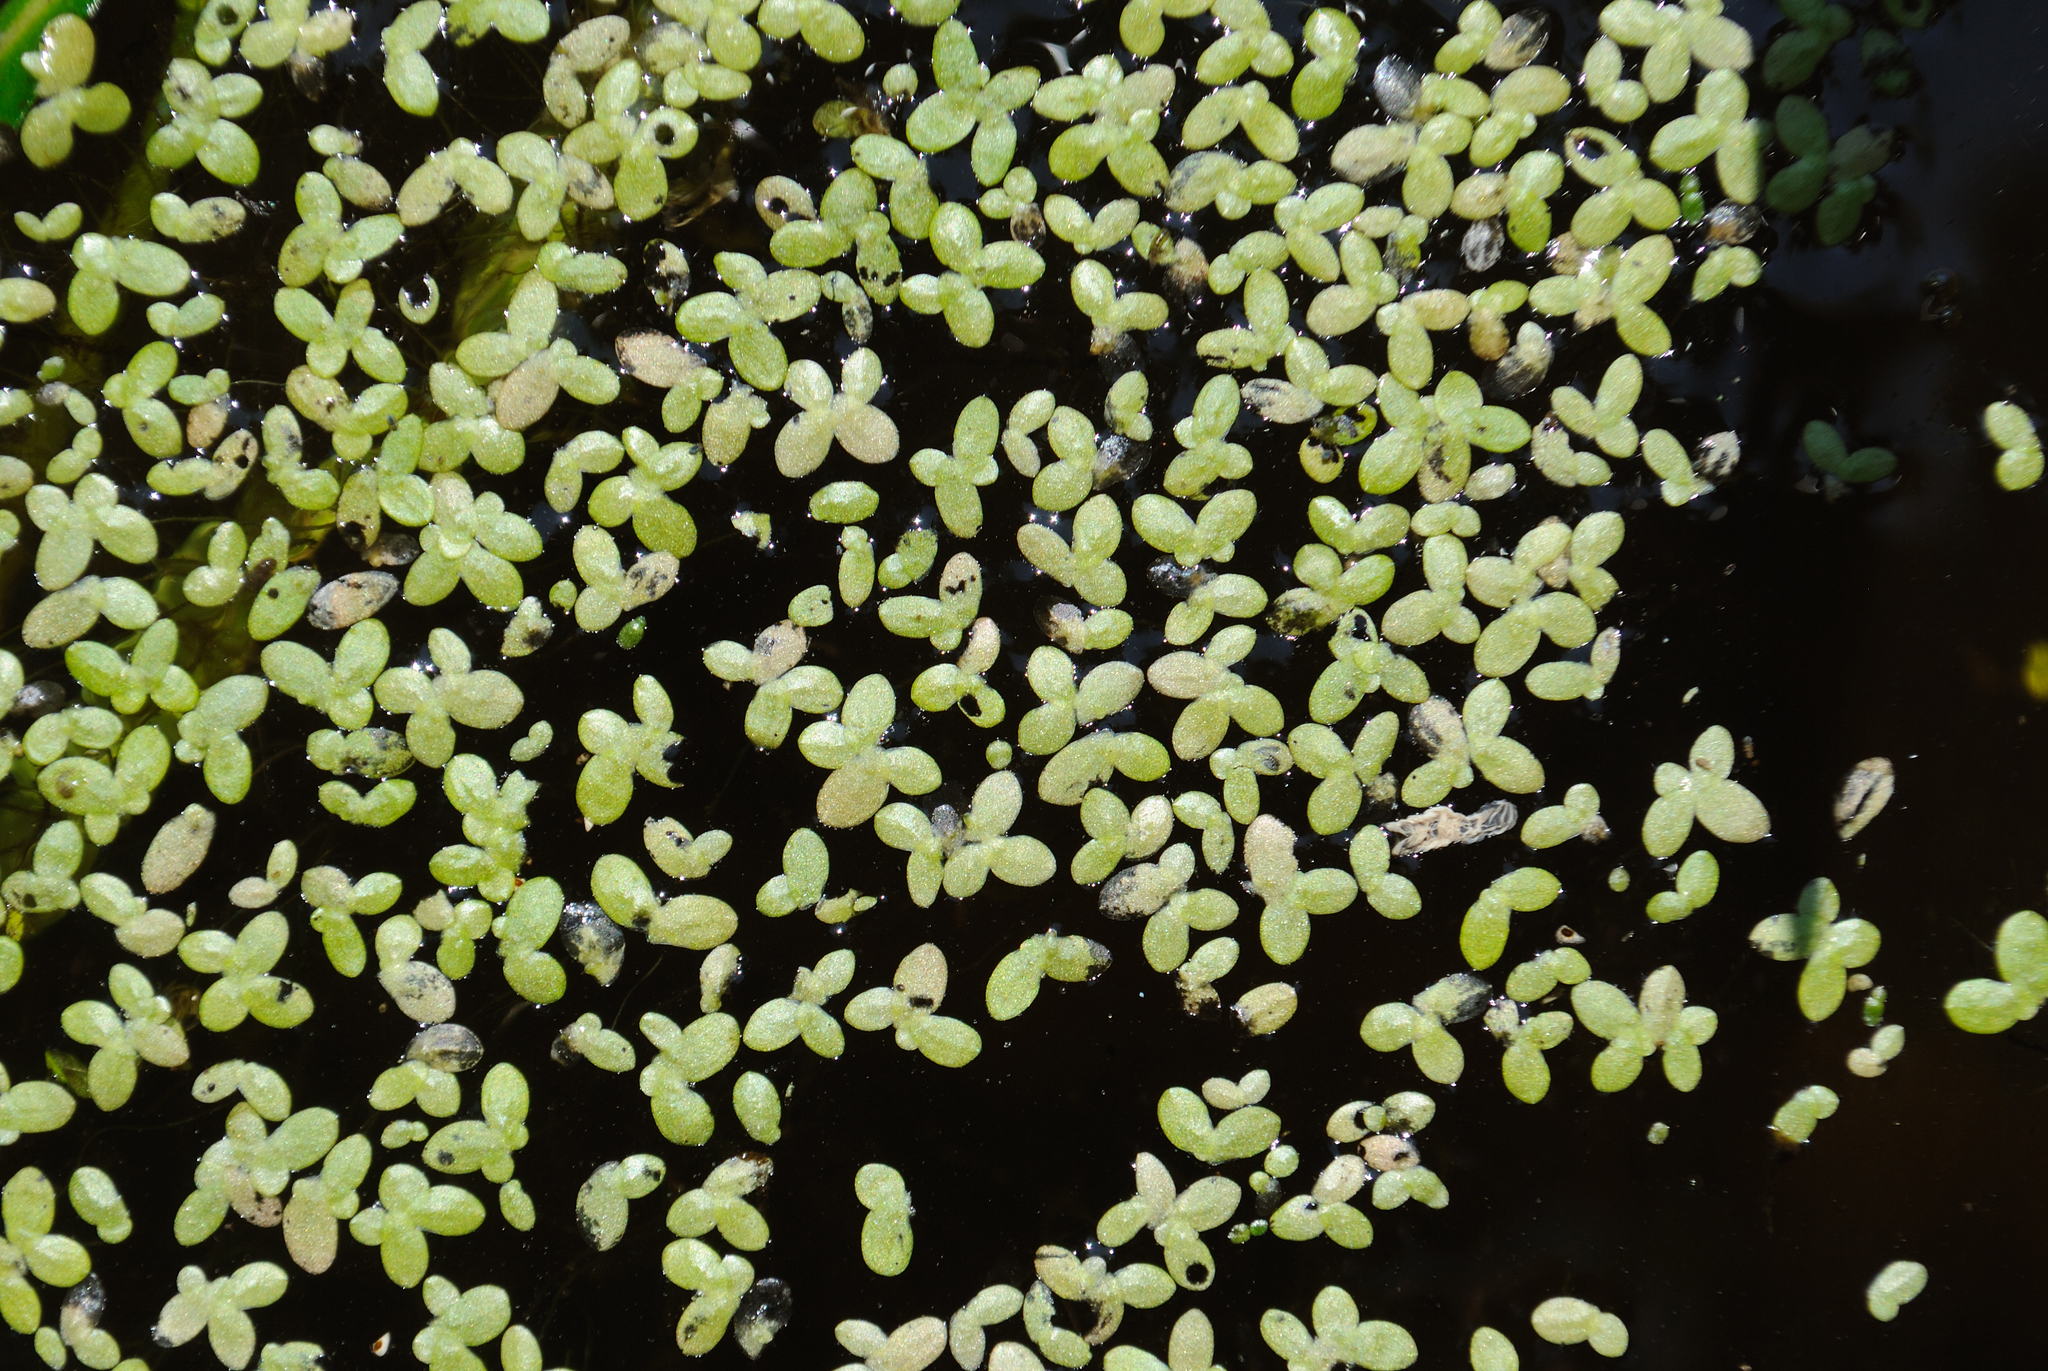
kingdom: Plantae
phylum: Tracheophyta
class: Liliopsida
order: Alismatales
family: Araceae
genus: Lemna
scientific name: Lemna perpusilla
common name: Duckweed
